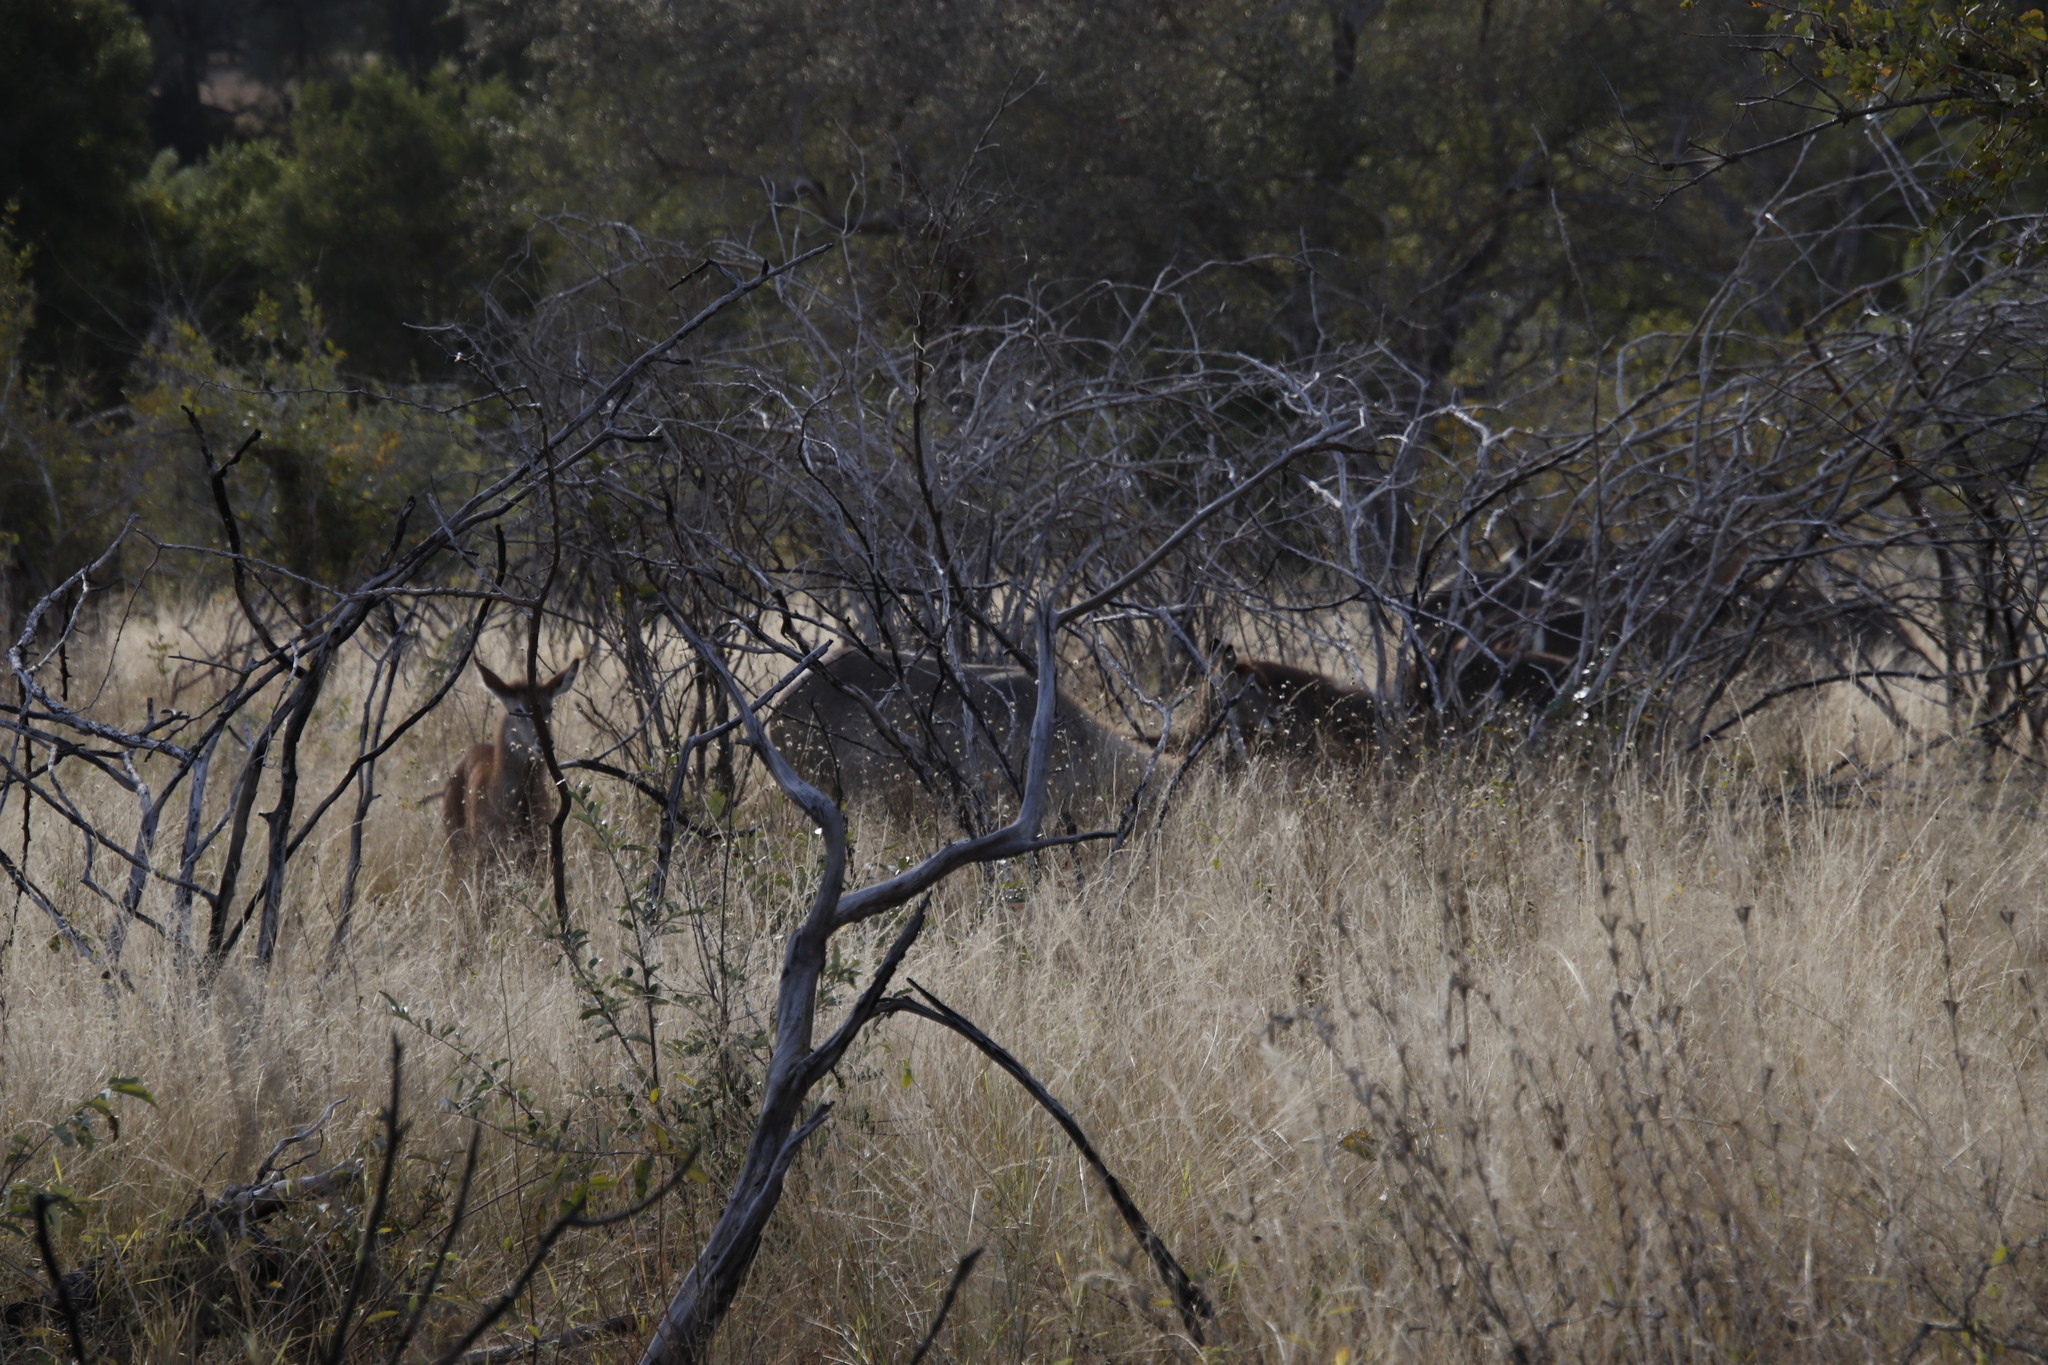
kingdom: Animalia
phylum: Chordata
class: Mammalia
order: Artiodactyla
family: Bovidae
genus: Kobus
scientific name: Kobus ellipsiprymnus
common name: Waterbuck
